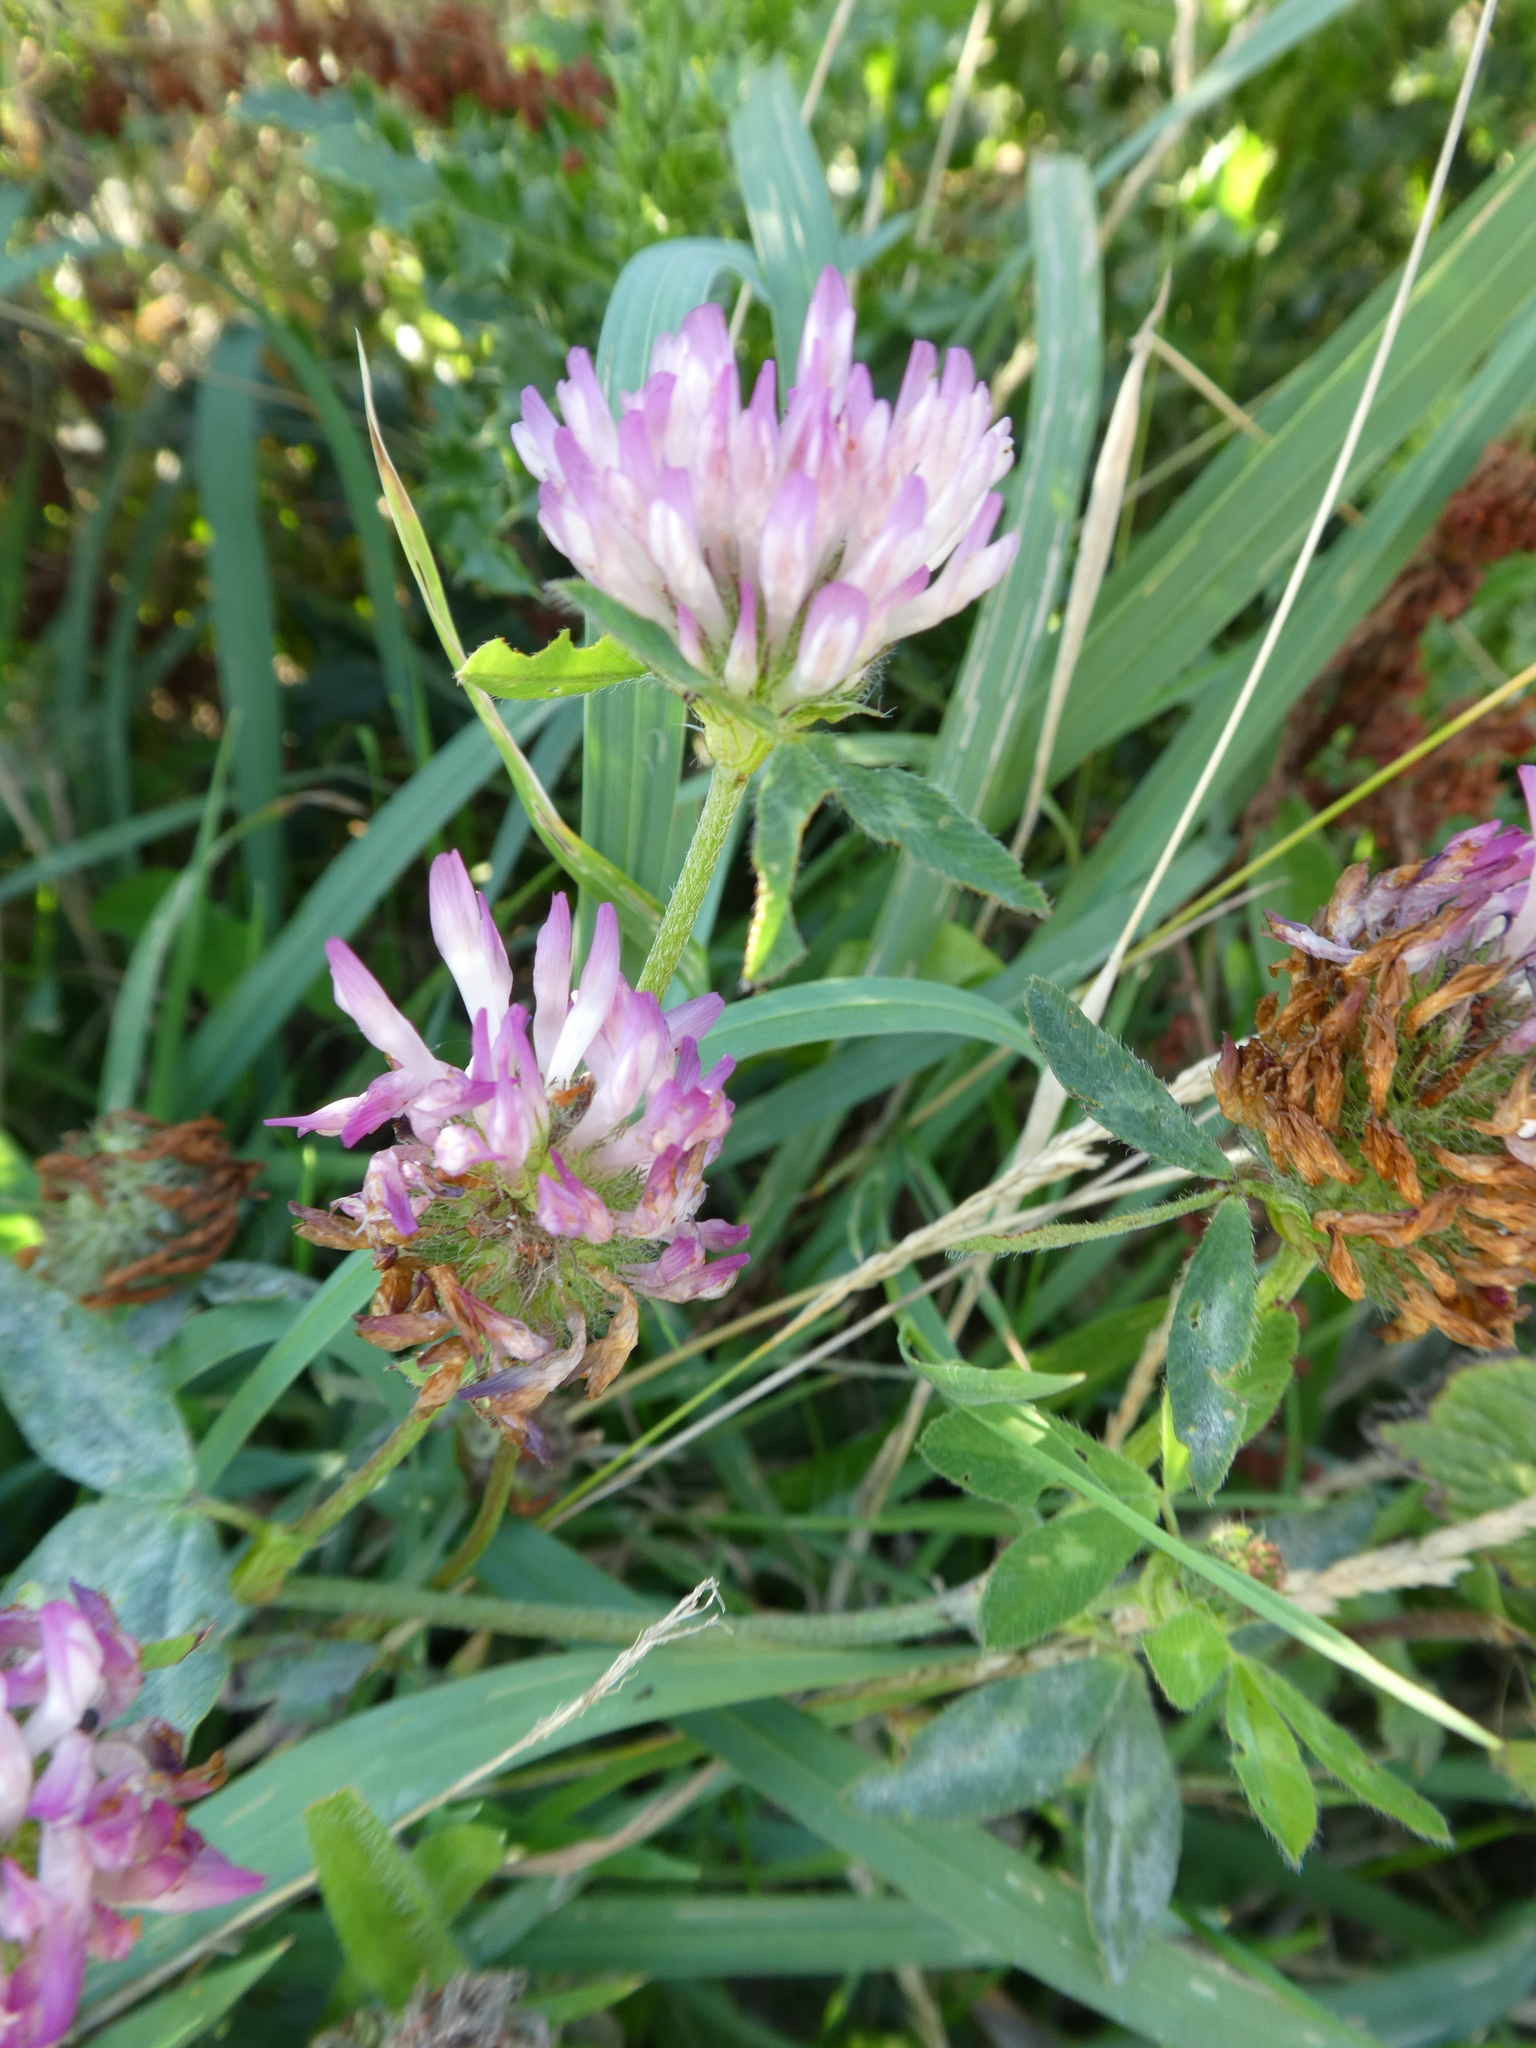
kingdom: Plantae
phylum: Tracheophyta
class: Magnoliopsida
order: Fabales
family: Fabaceae
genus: Trifolium
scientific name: Trifolium pratense
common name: Red clover
